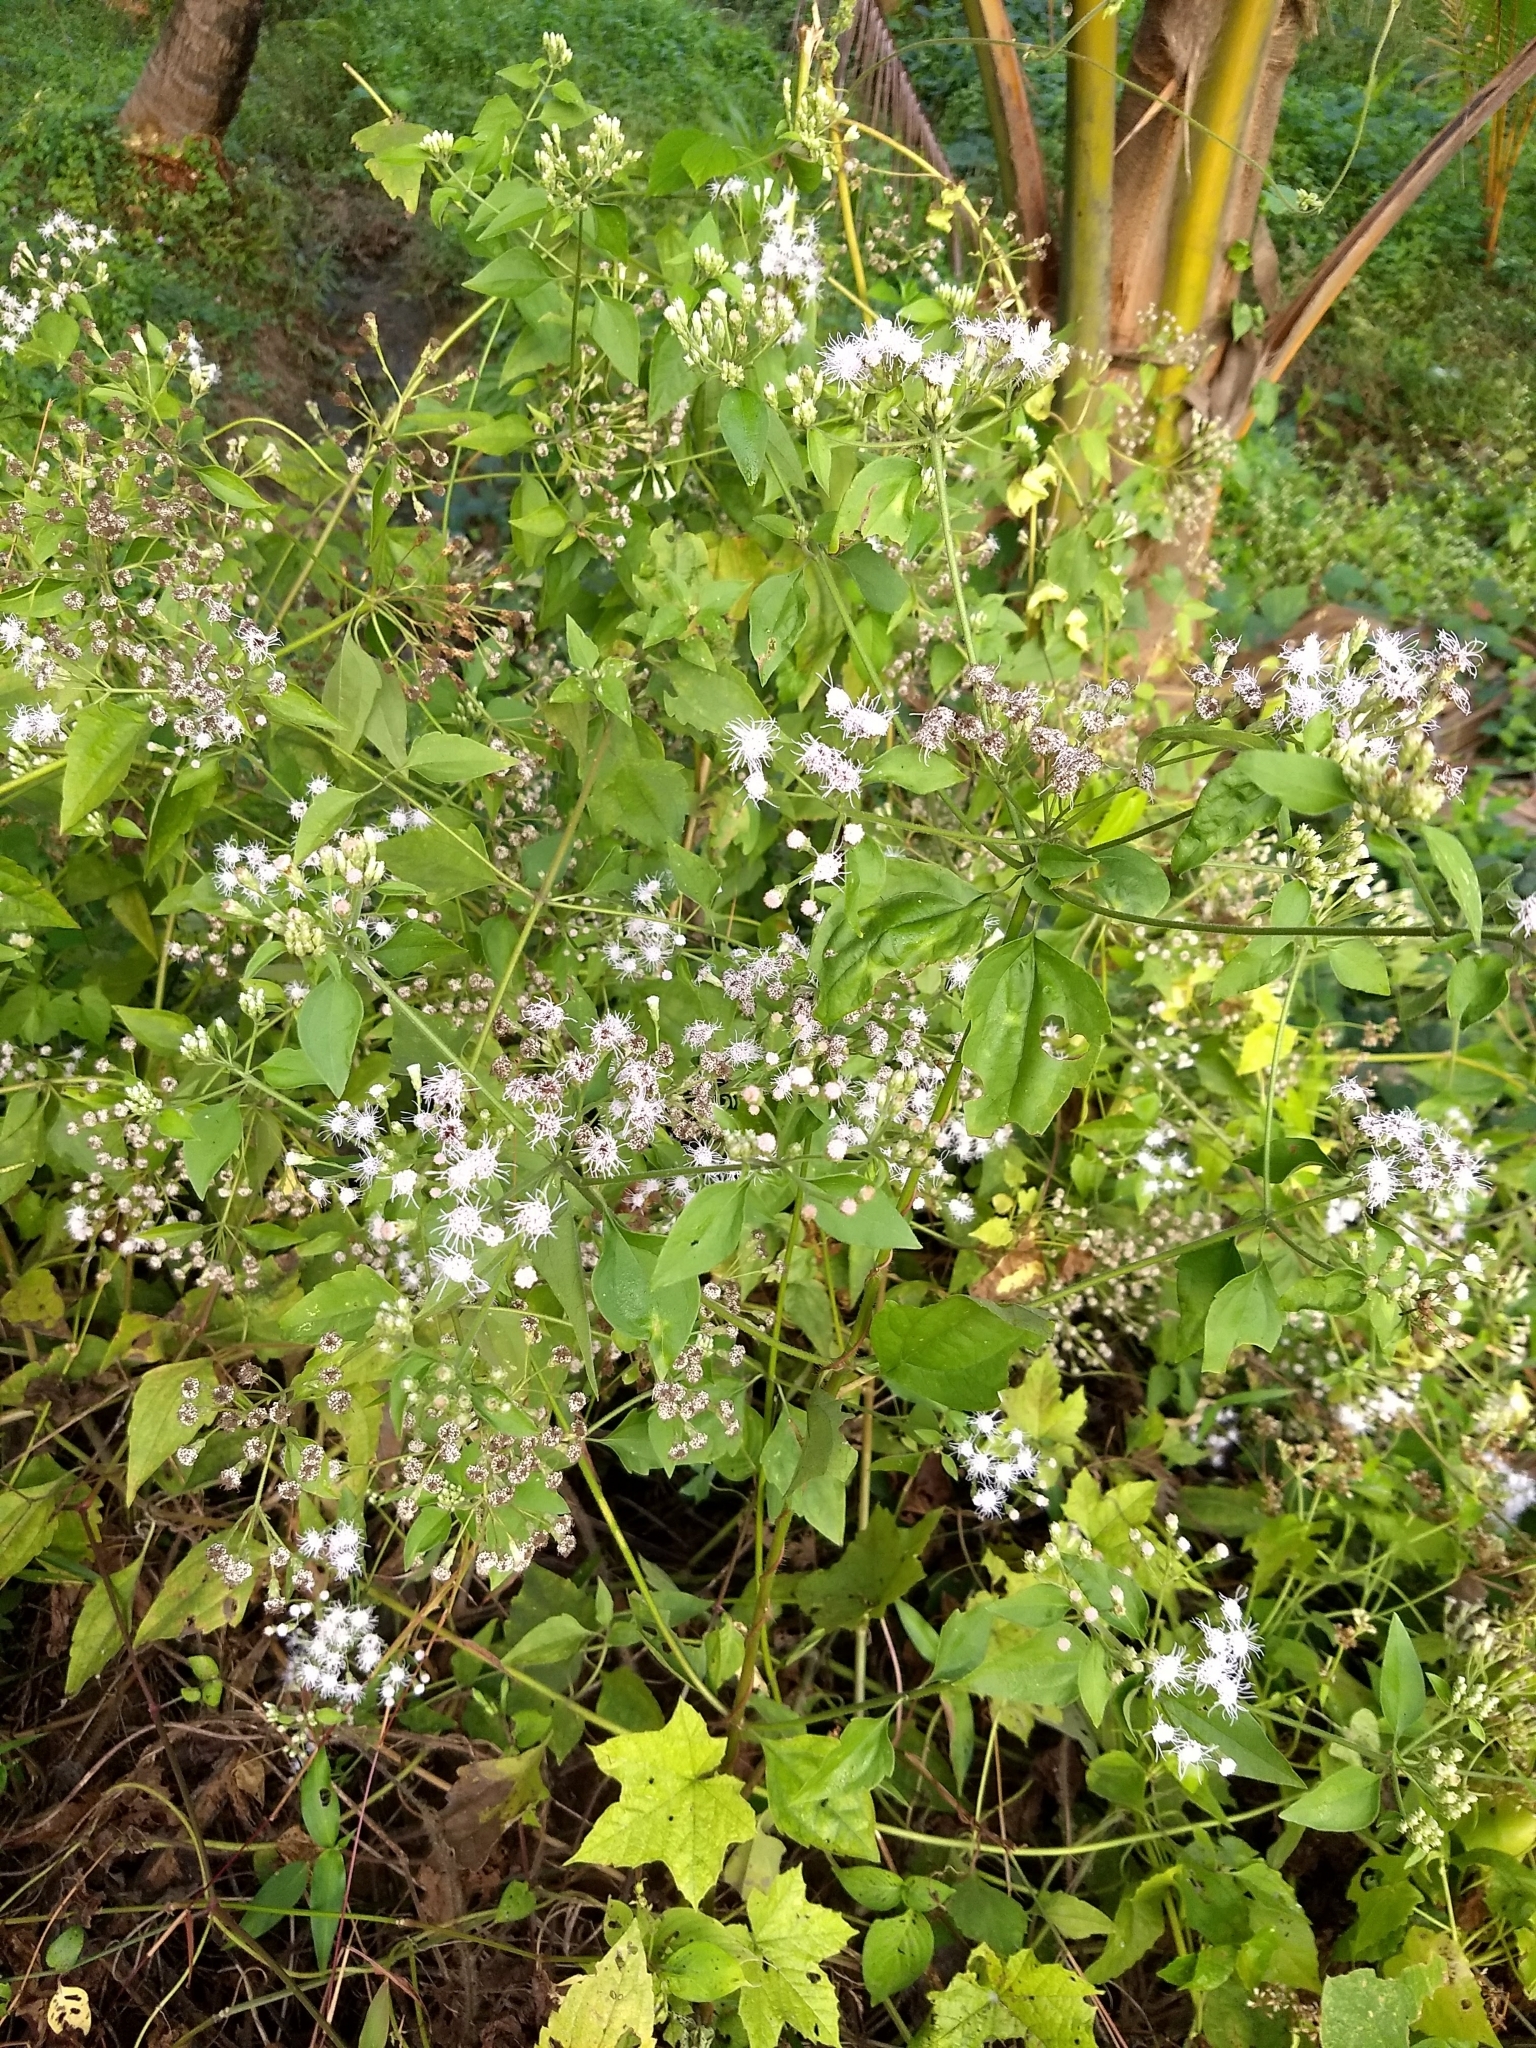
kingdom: Plantae
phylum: Tracheophyta
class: Magnoliopsida
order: Asterales
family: Asteraceae
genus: Chromolaena
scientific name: Chromolaena odorata
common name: Siamweed
